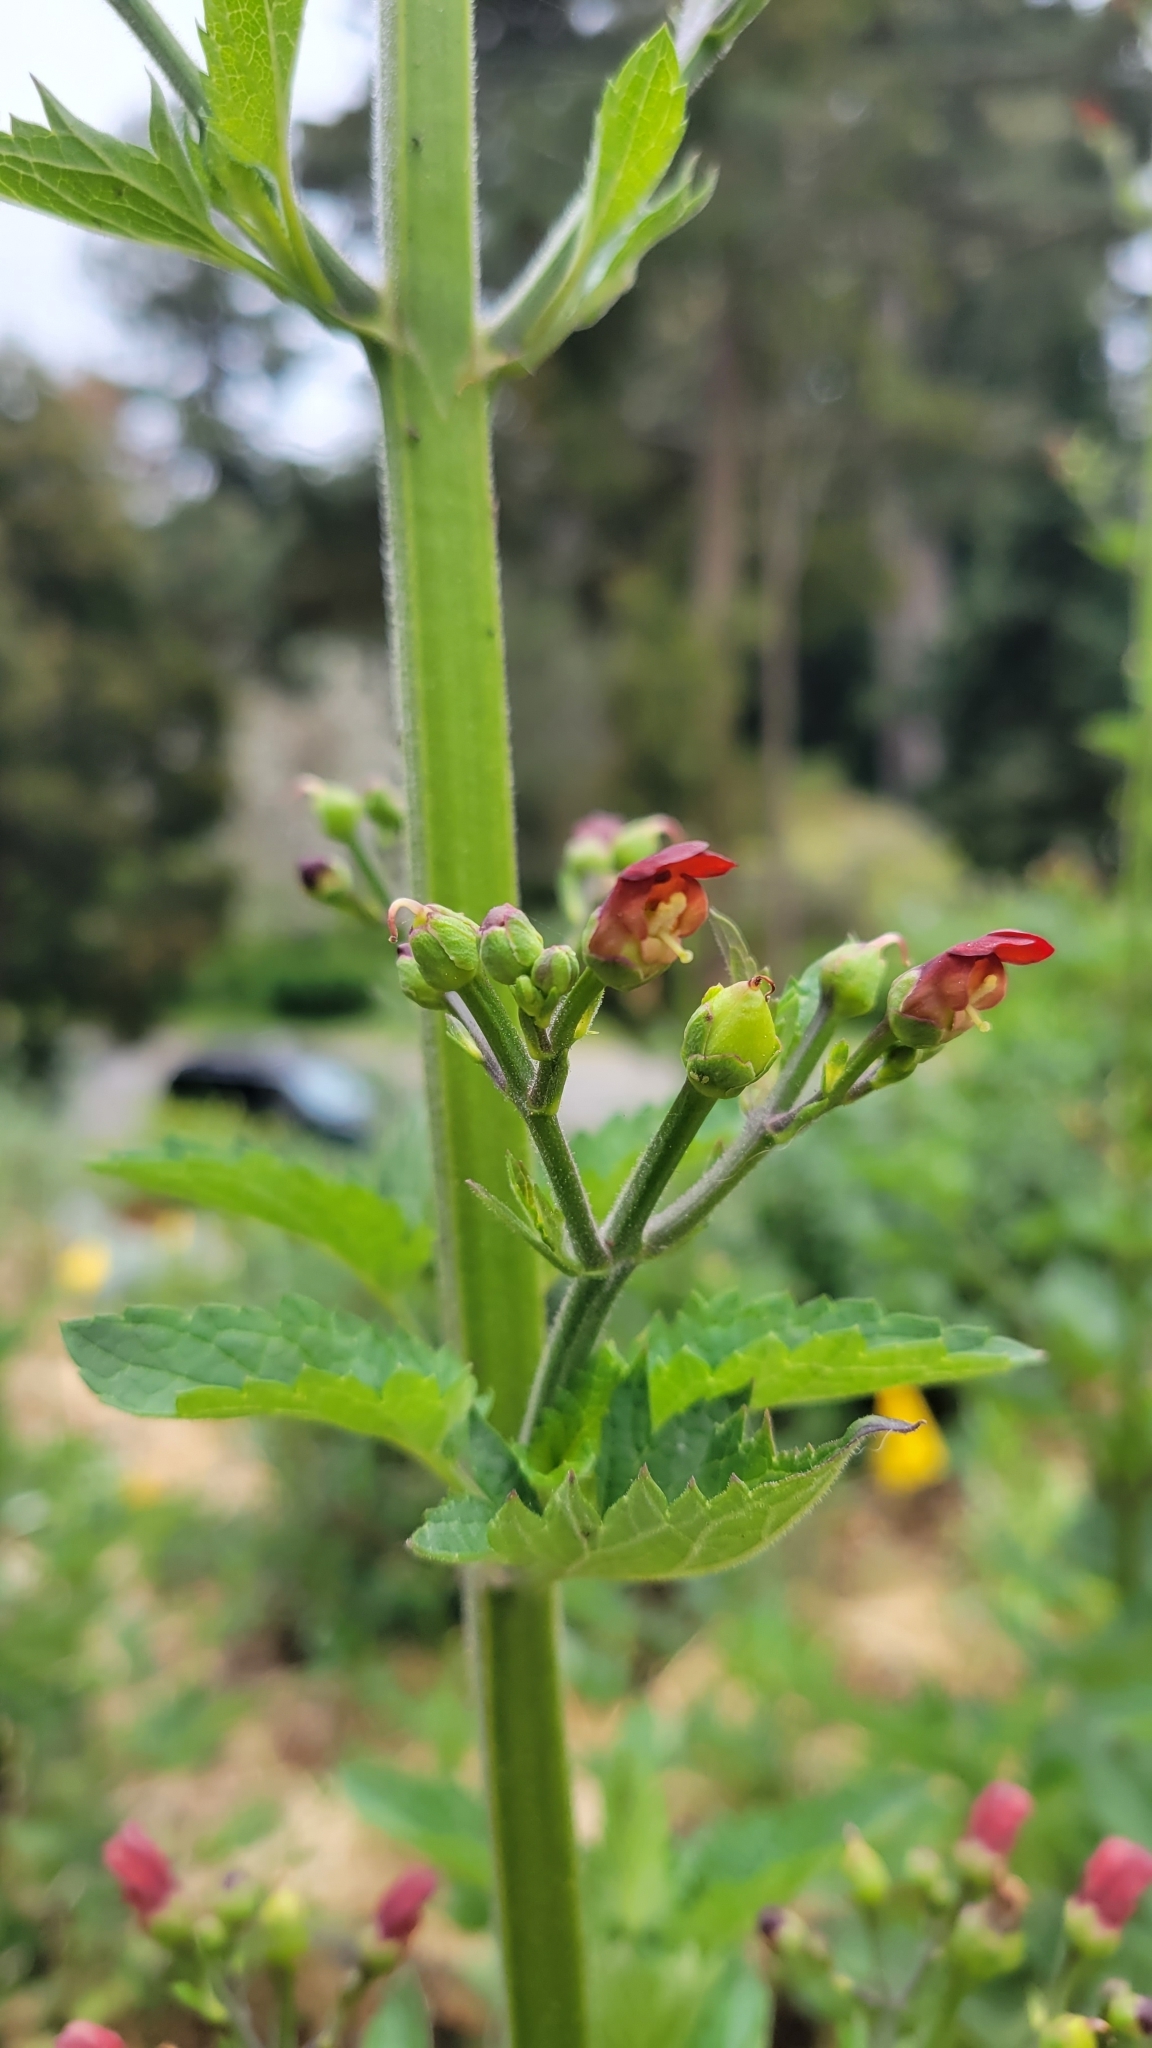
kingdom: Plantae
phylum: Tracheophyta
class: Magnoliopsida
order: Lamiales
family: Scrophulariaceae
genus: Scrophularia
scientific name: Scrophularia californica
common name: California figwort
